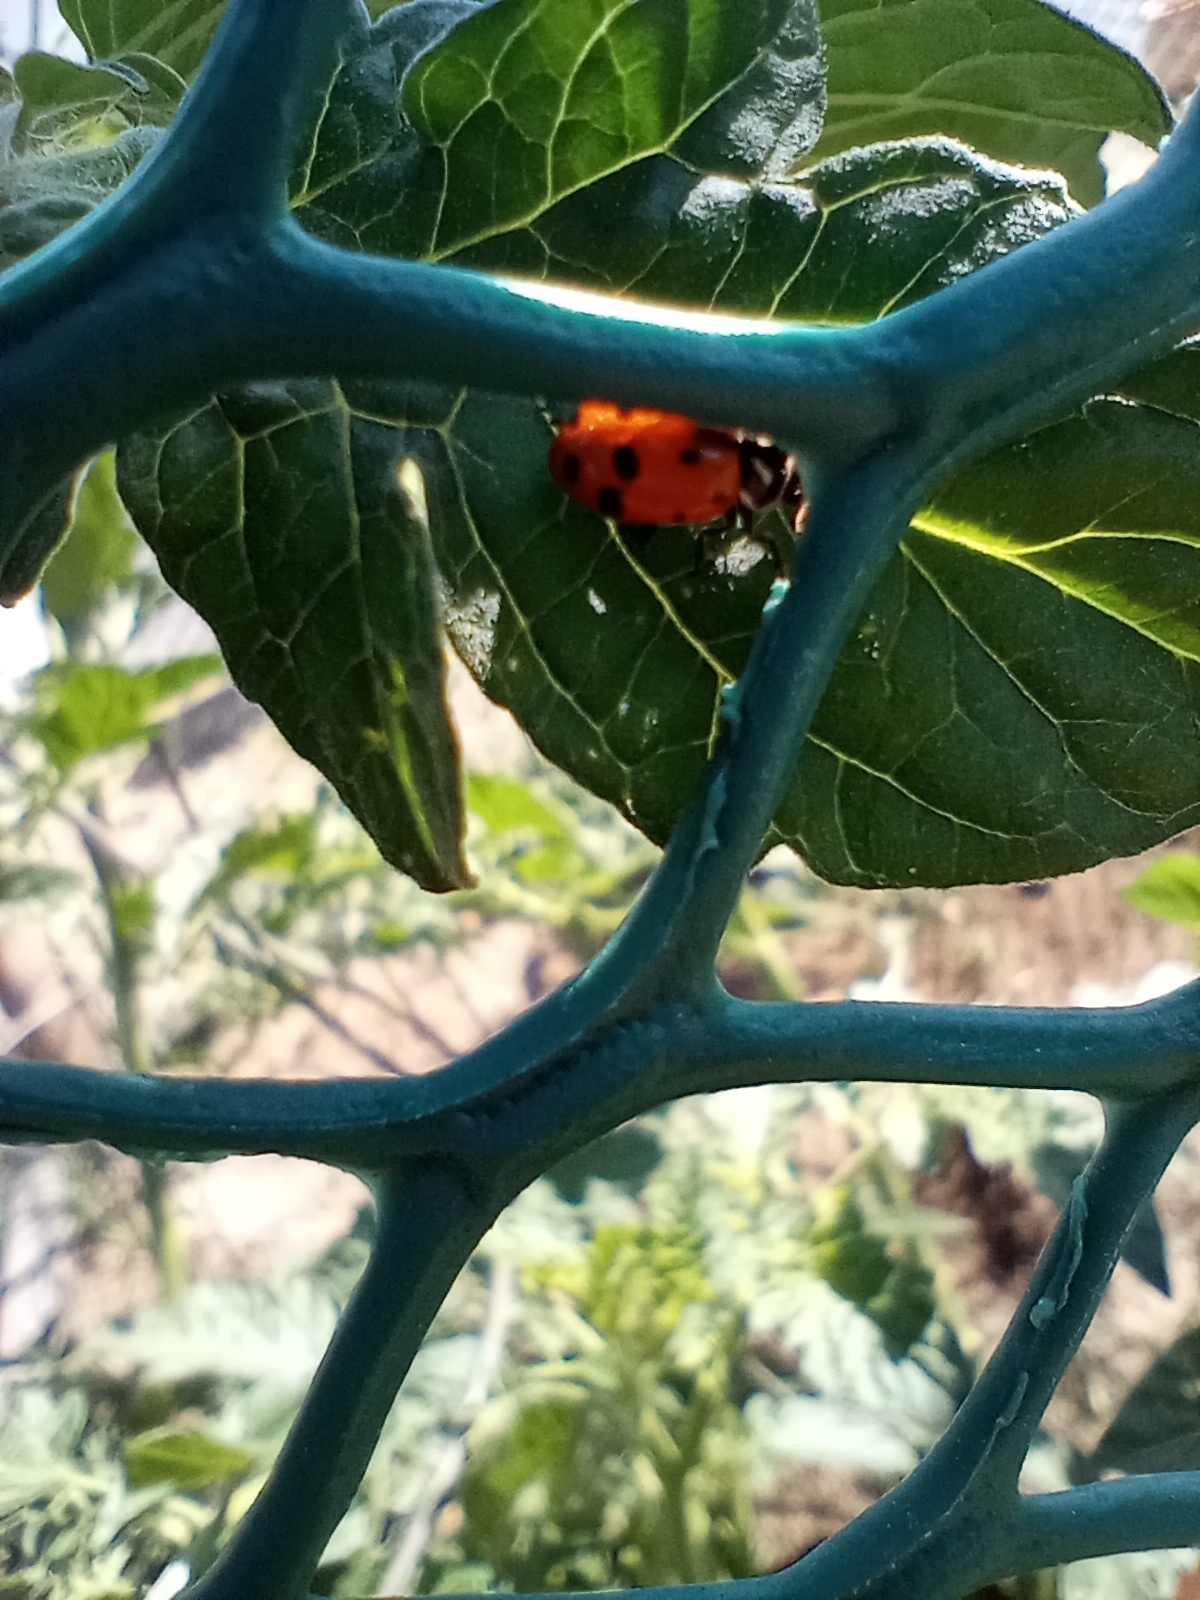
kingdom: Animalia
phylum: Arthropoda
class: Insecta
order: Coleoptera
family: Coccinellidae
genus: Hippodamia
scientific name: Hippodamia convergens
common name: Convergent lady beetle
